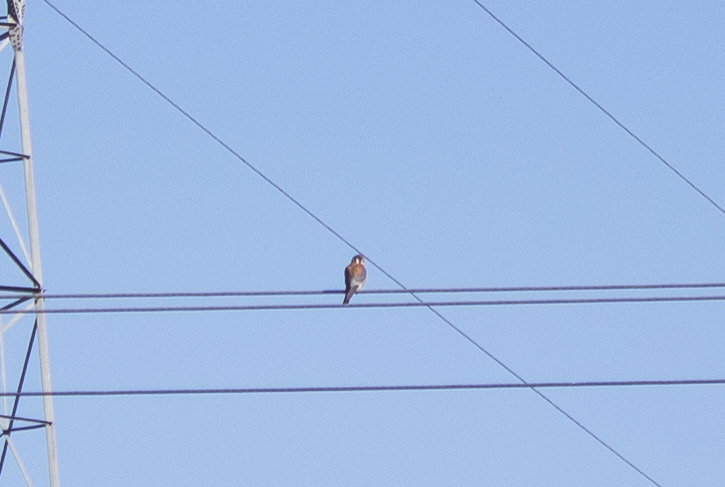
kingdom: Animalia
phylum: Chordata
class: Aves
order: Falconiformes
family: Falconidae
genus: Falco
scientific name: Falco sparverius
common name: American kestrel
